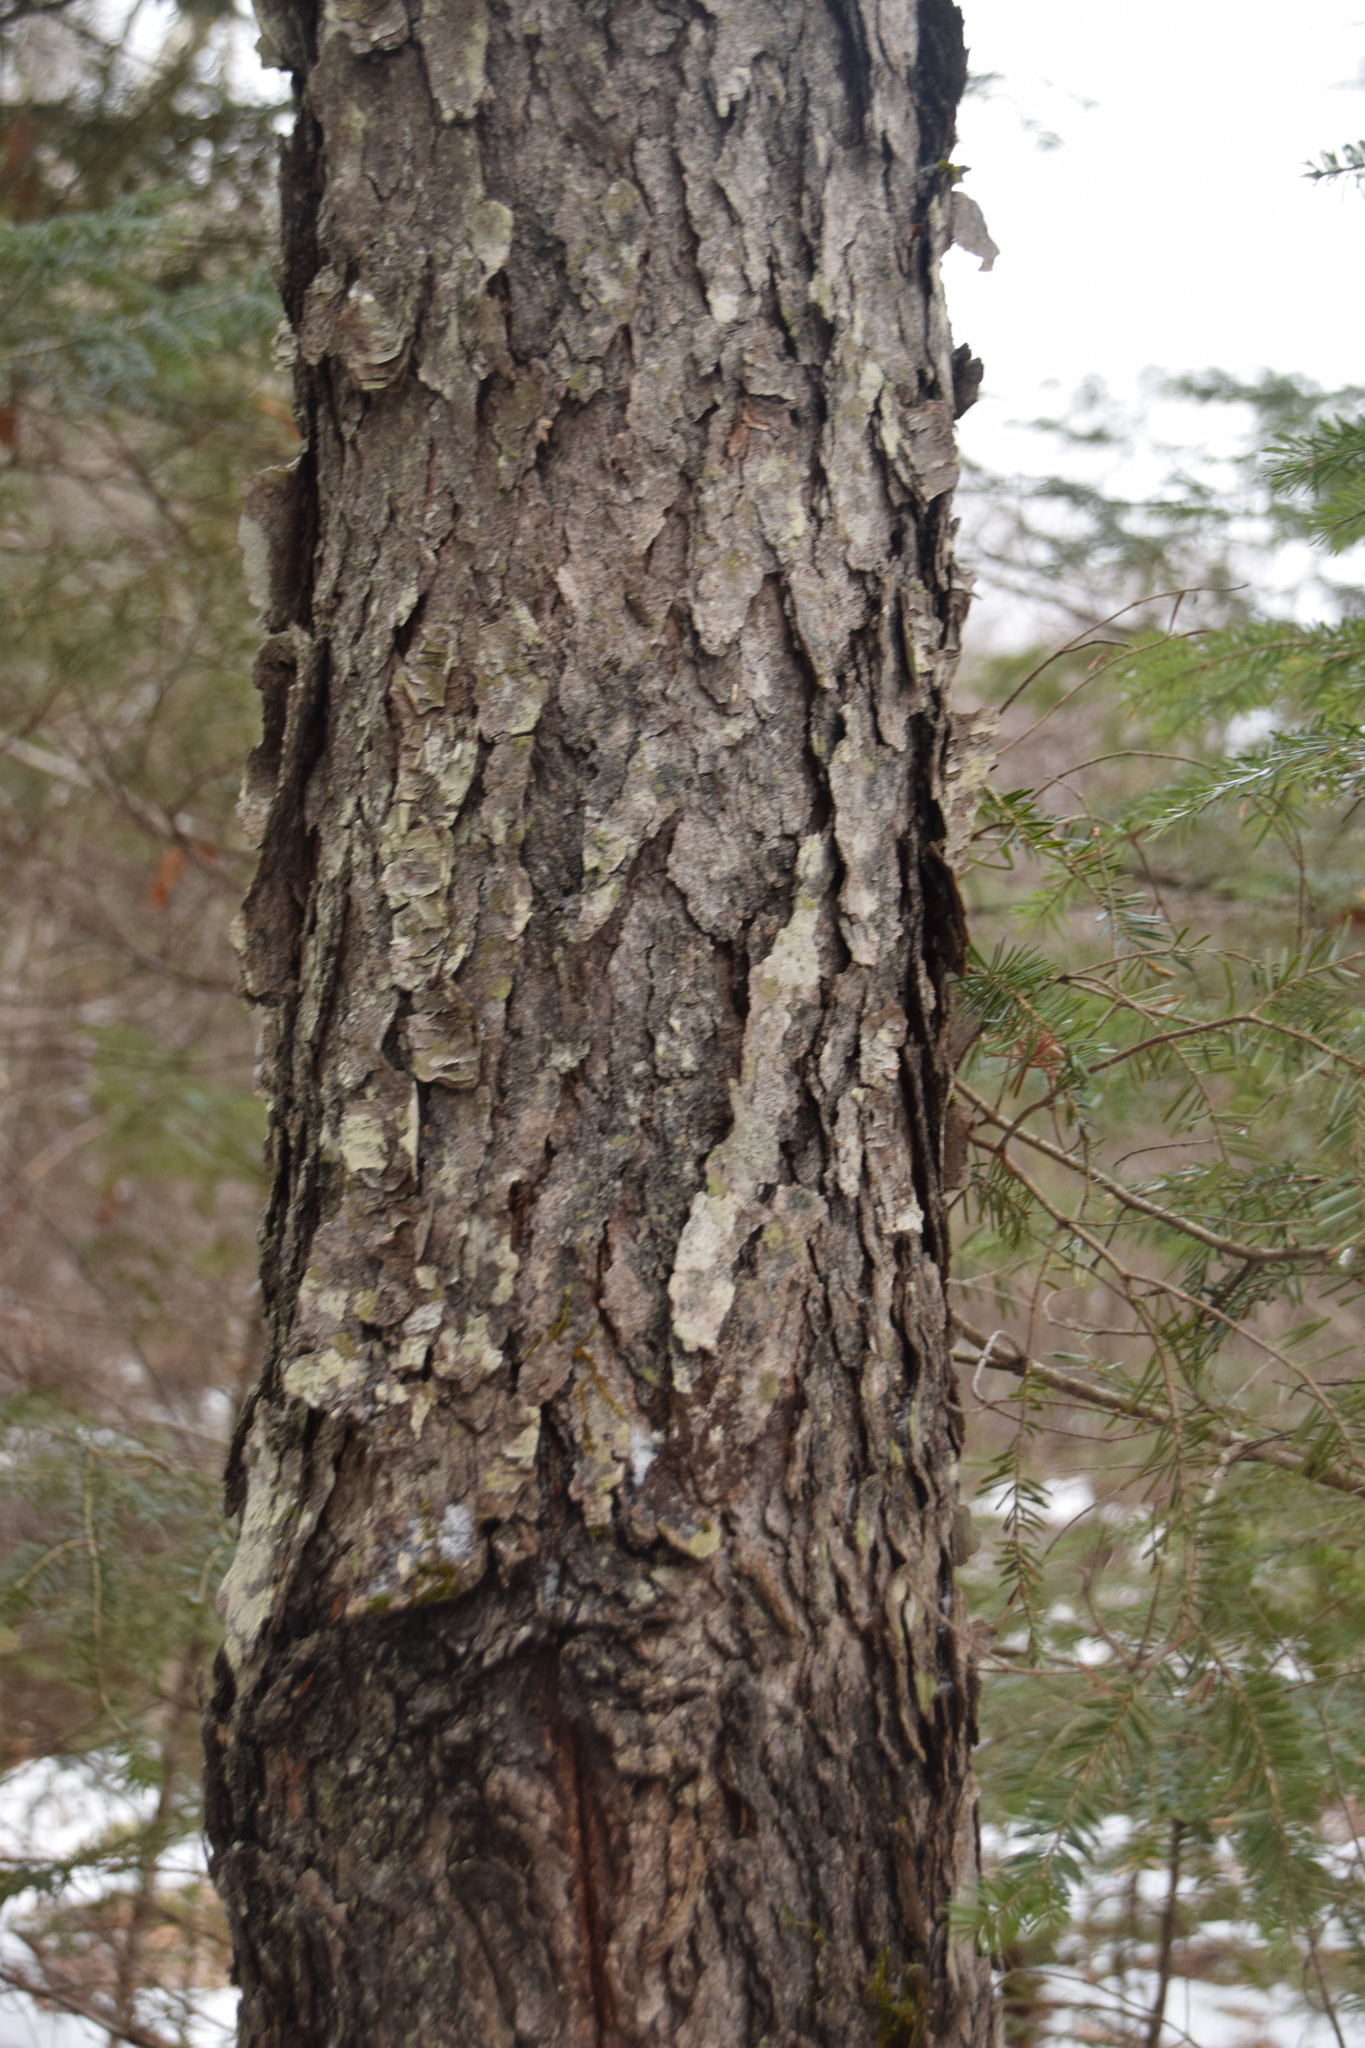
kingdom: Plantae
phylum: Tracheophyta
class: Magnoliopsida
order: Rosales
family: Rosaceae
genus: Prunus
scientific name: Prunus serotina
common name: Black cherry
